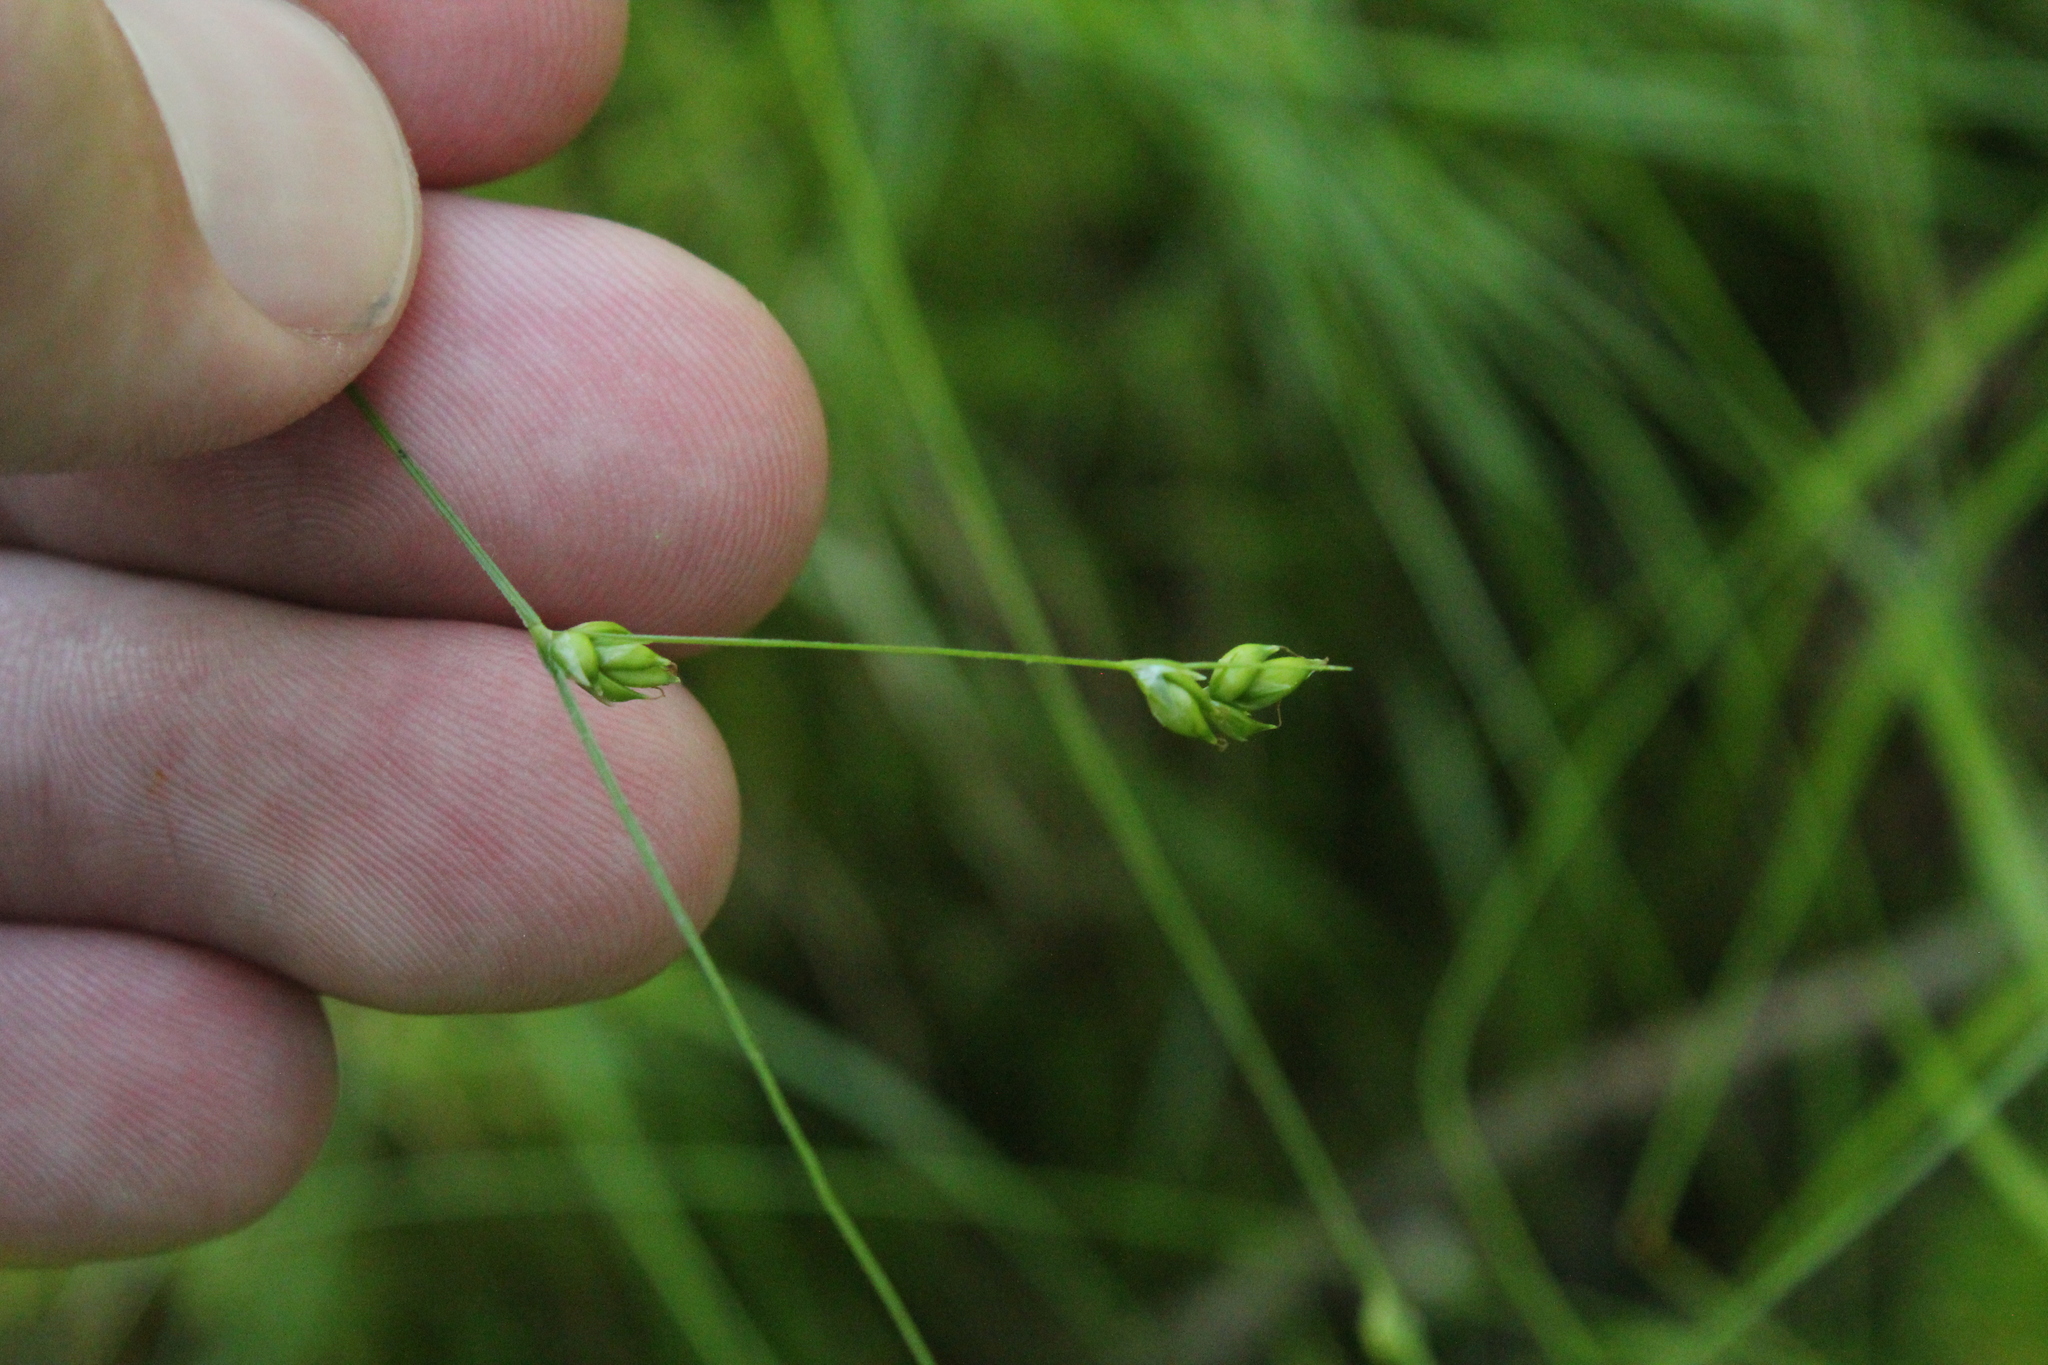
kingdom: Plantae
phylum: Tracheophyta
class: Liliopsida
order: Poales
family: Cyperaceae
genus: Carex
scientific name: Carex trisperma
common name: Three-seeded sedge
